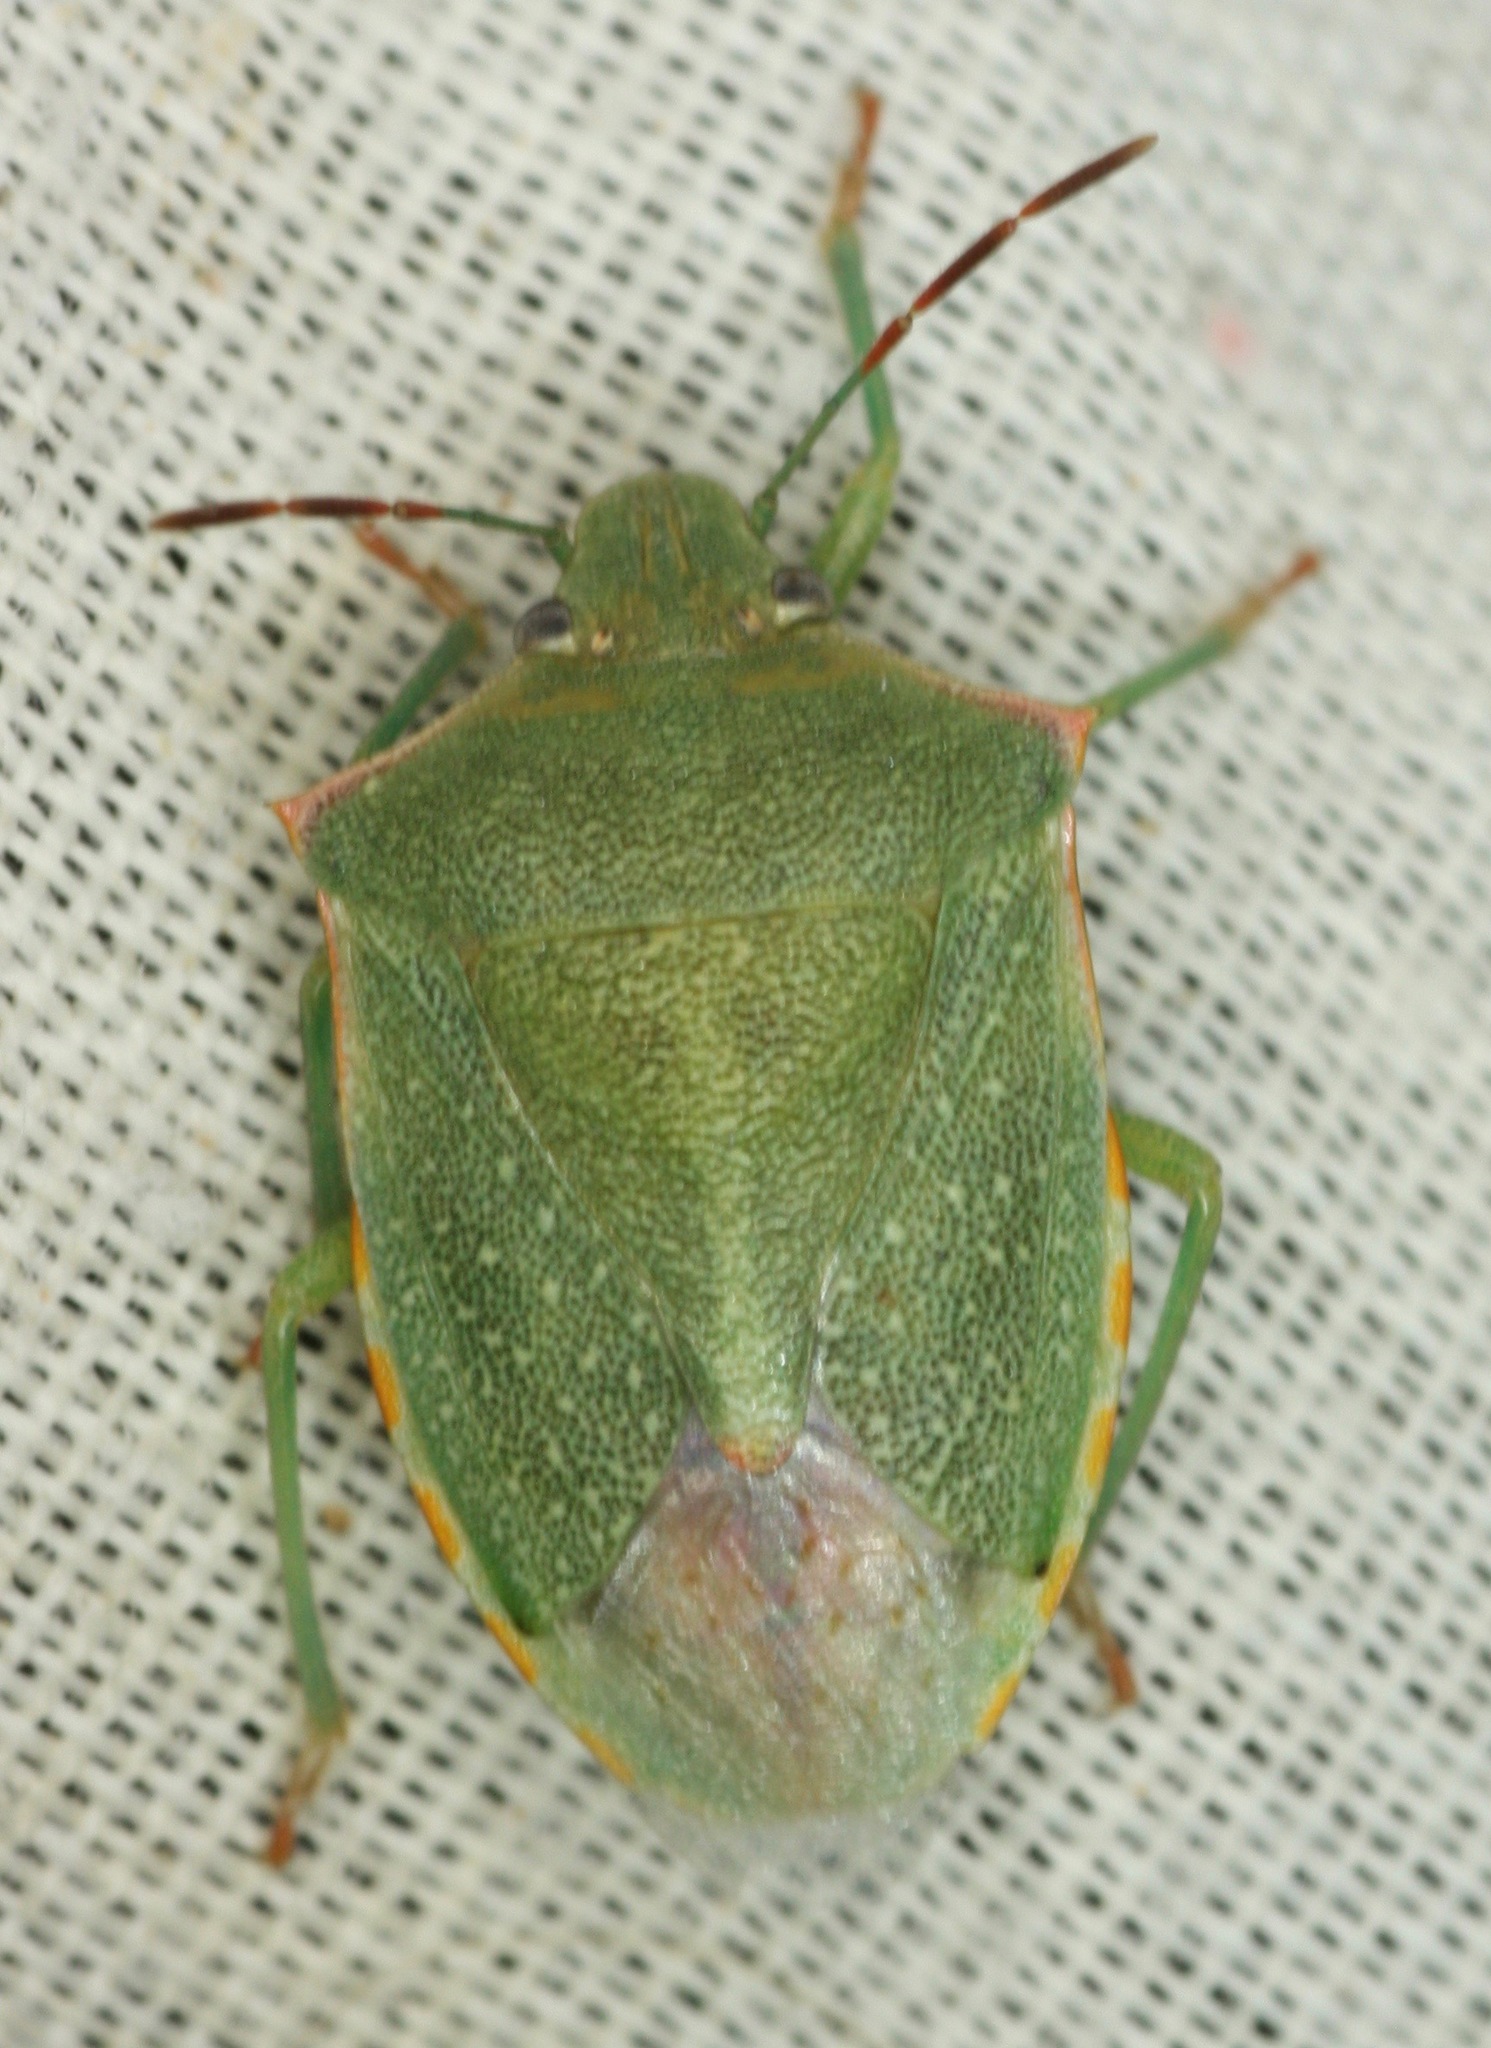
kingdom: Animalia
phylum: Arthropoda
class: Insecta
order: Hemiptera
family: Pentatomidae
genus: Thyanta
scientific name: Thyanta custator
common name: Stink bug
